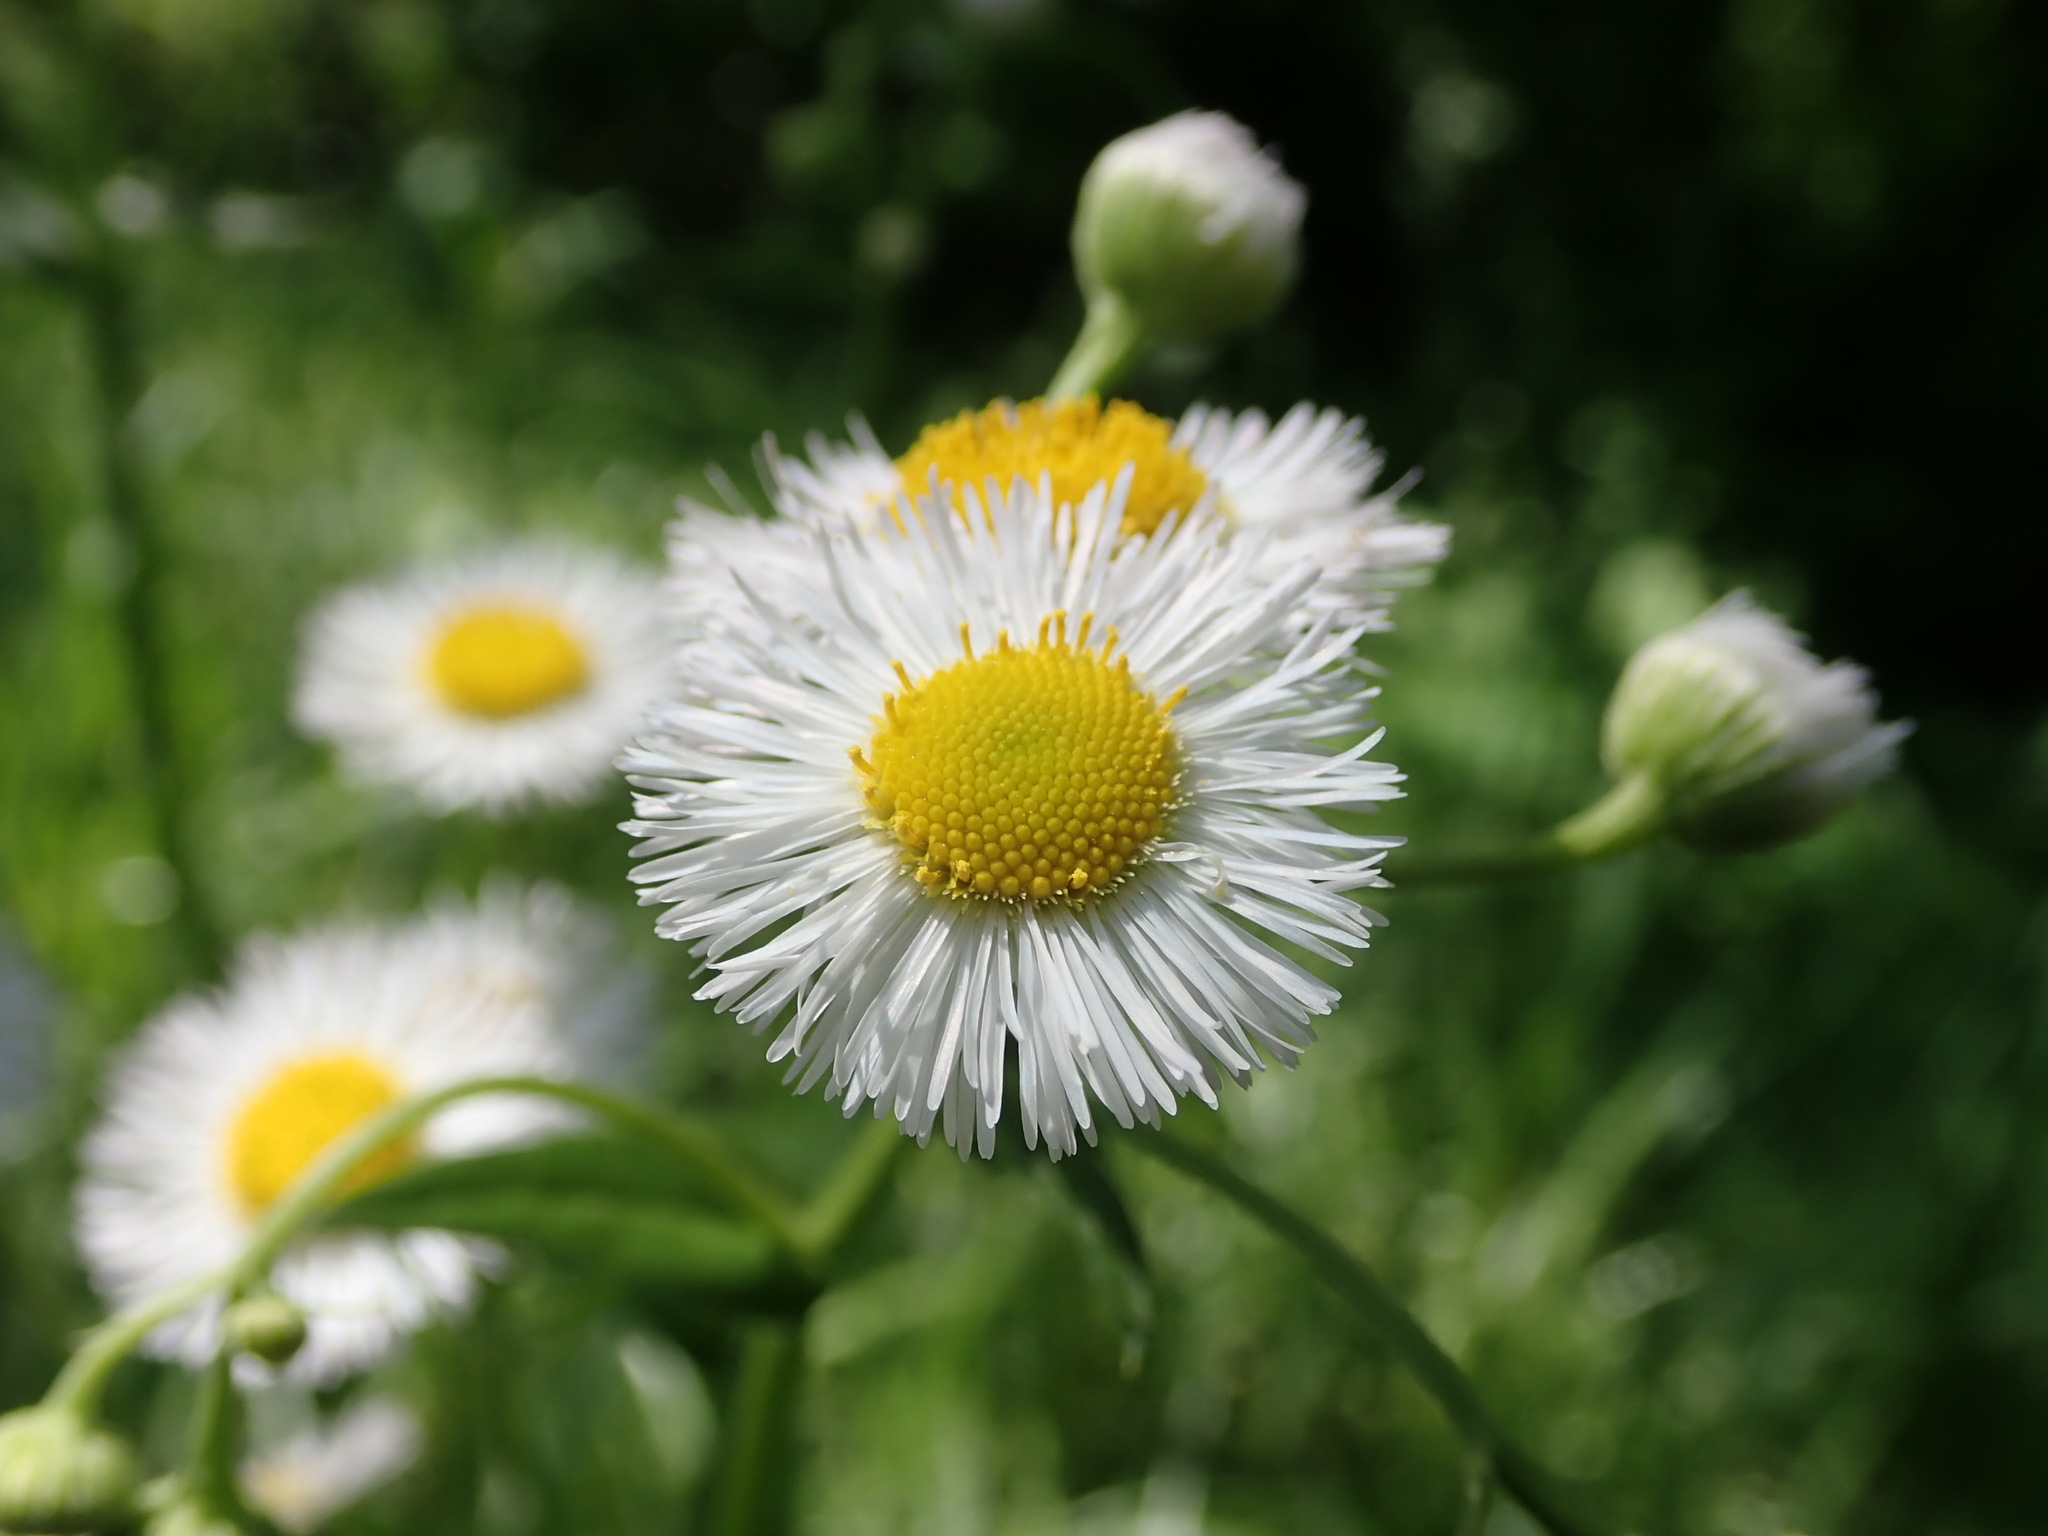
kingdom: Plantae
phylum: Tracheophyta
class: Magnoliopsida
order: Asterales
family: Asteraceae
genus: Erigeron
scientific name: Erigeron philadelphicus
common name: Robin's-plantain
